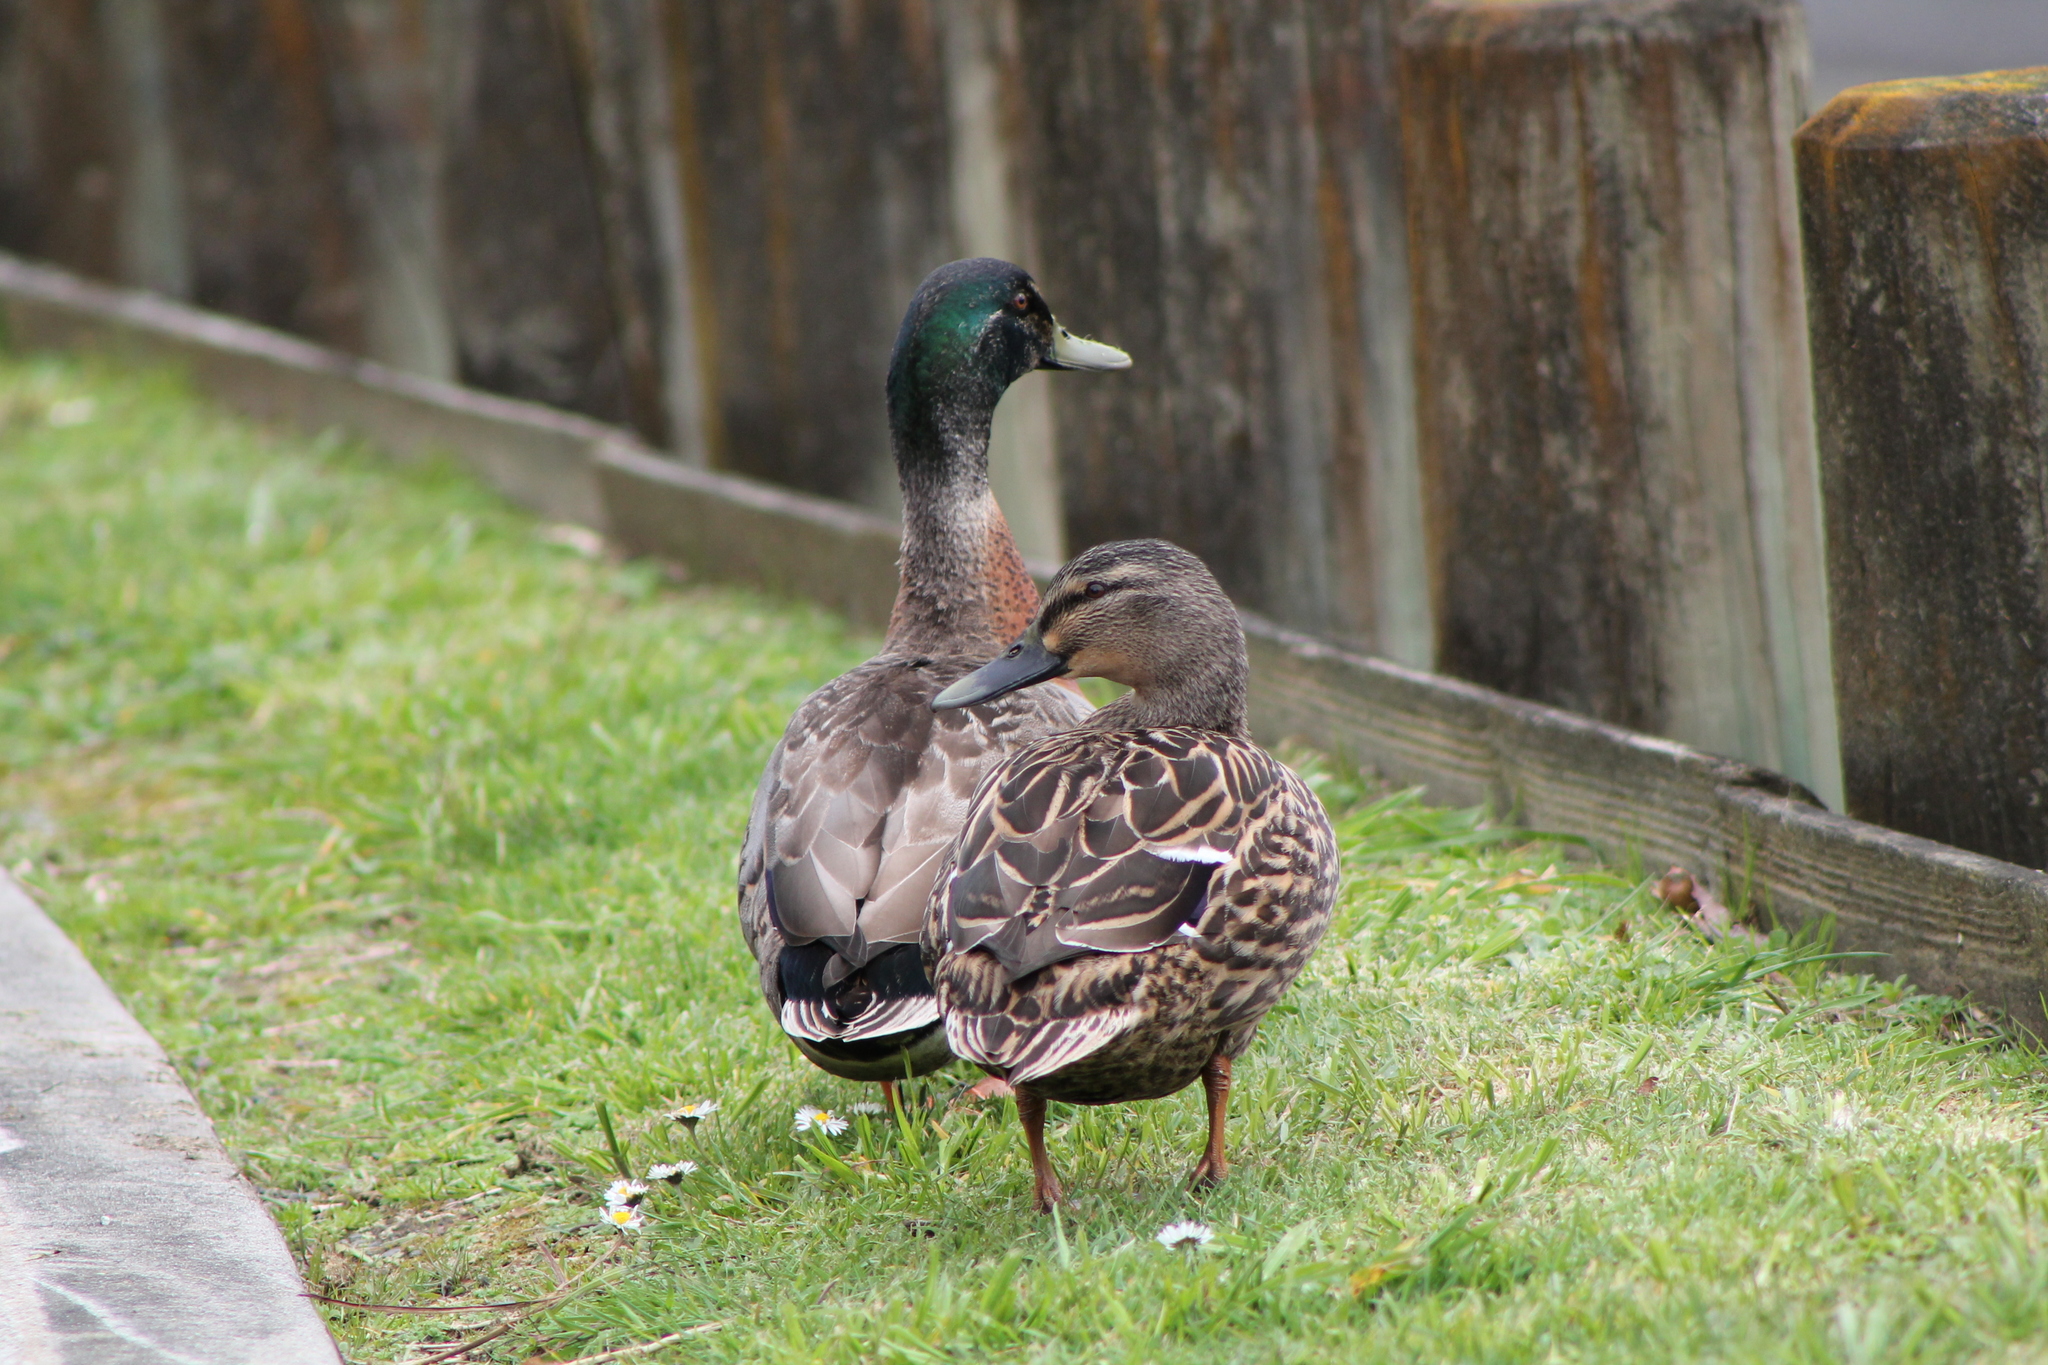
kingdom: Animalia
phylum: Chordata
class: Aves
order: Anseriformes
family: Anatidae
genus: Anas
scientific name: Anas
